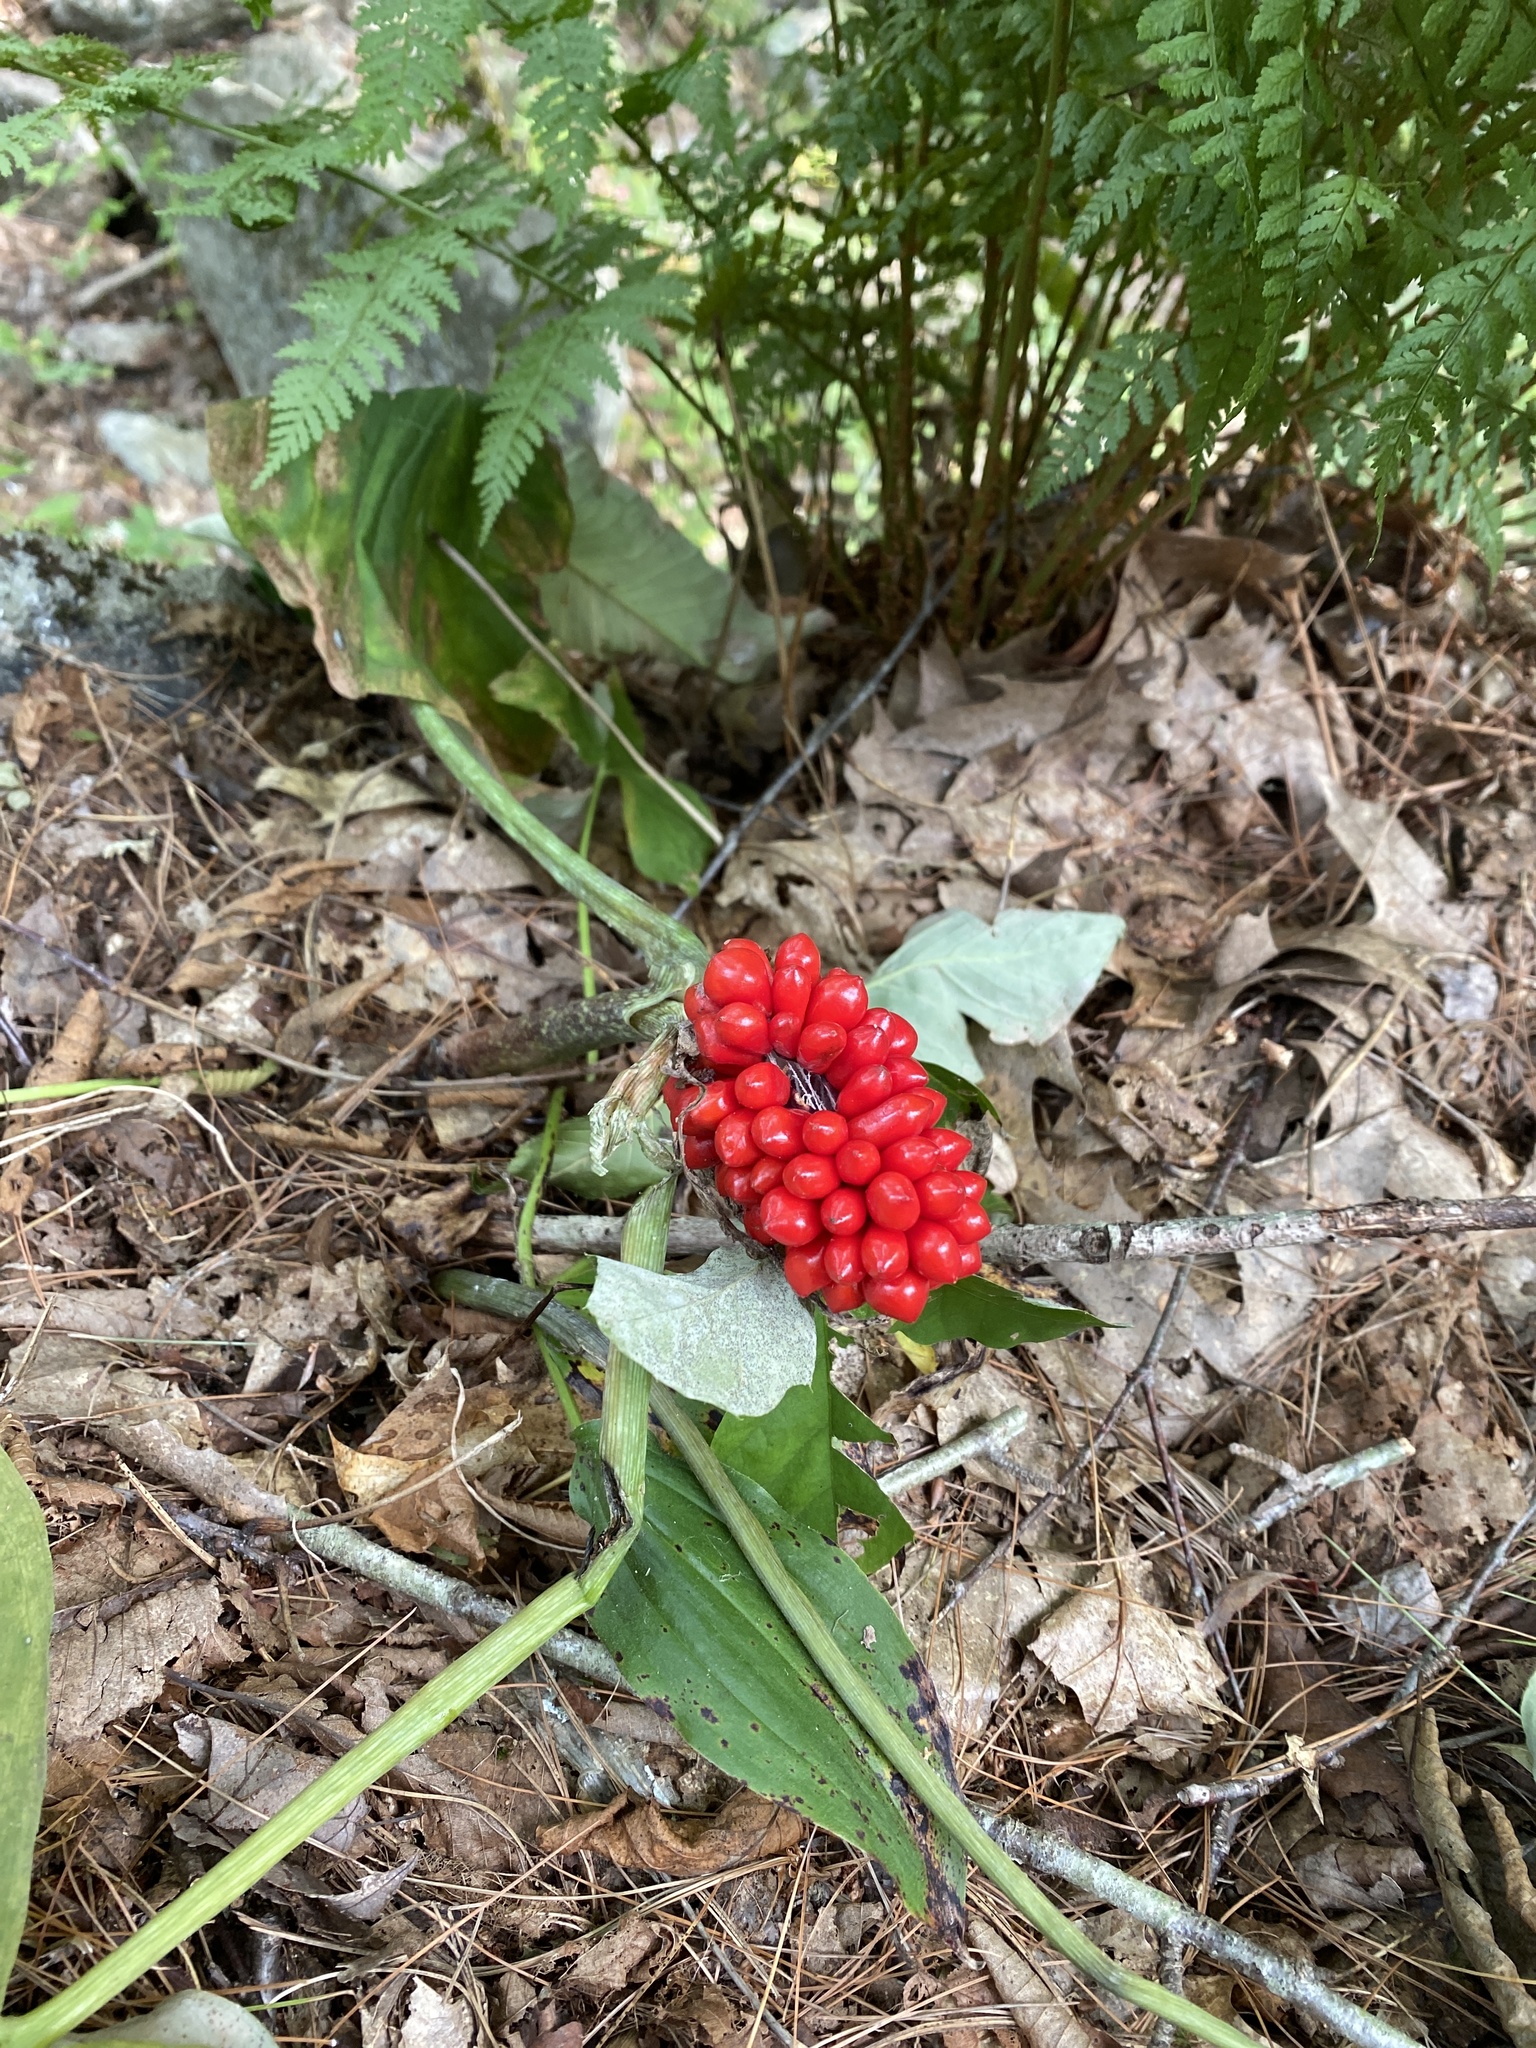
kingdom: Plantae
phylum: Tracheophyta
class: Liliopsida
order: Alismatales
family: Araceae
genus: Arisaema
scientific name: Arisaema triphyllum
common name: Jack-in-the-pulpit
